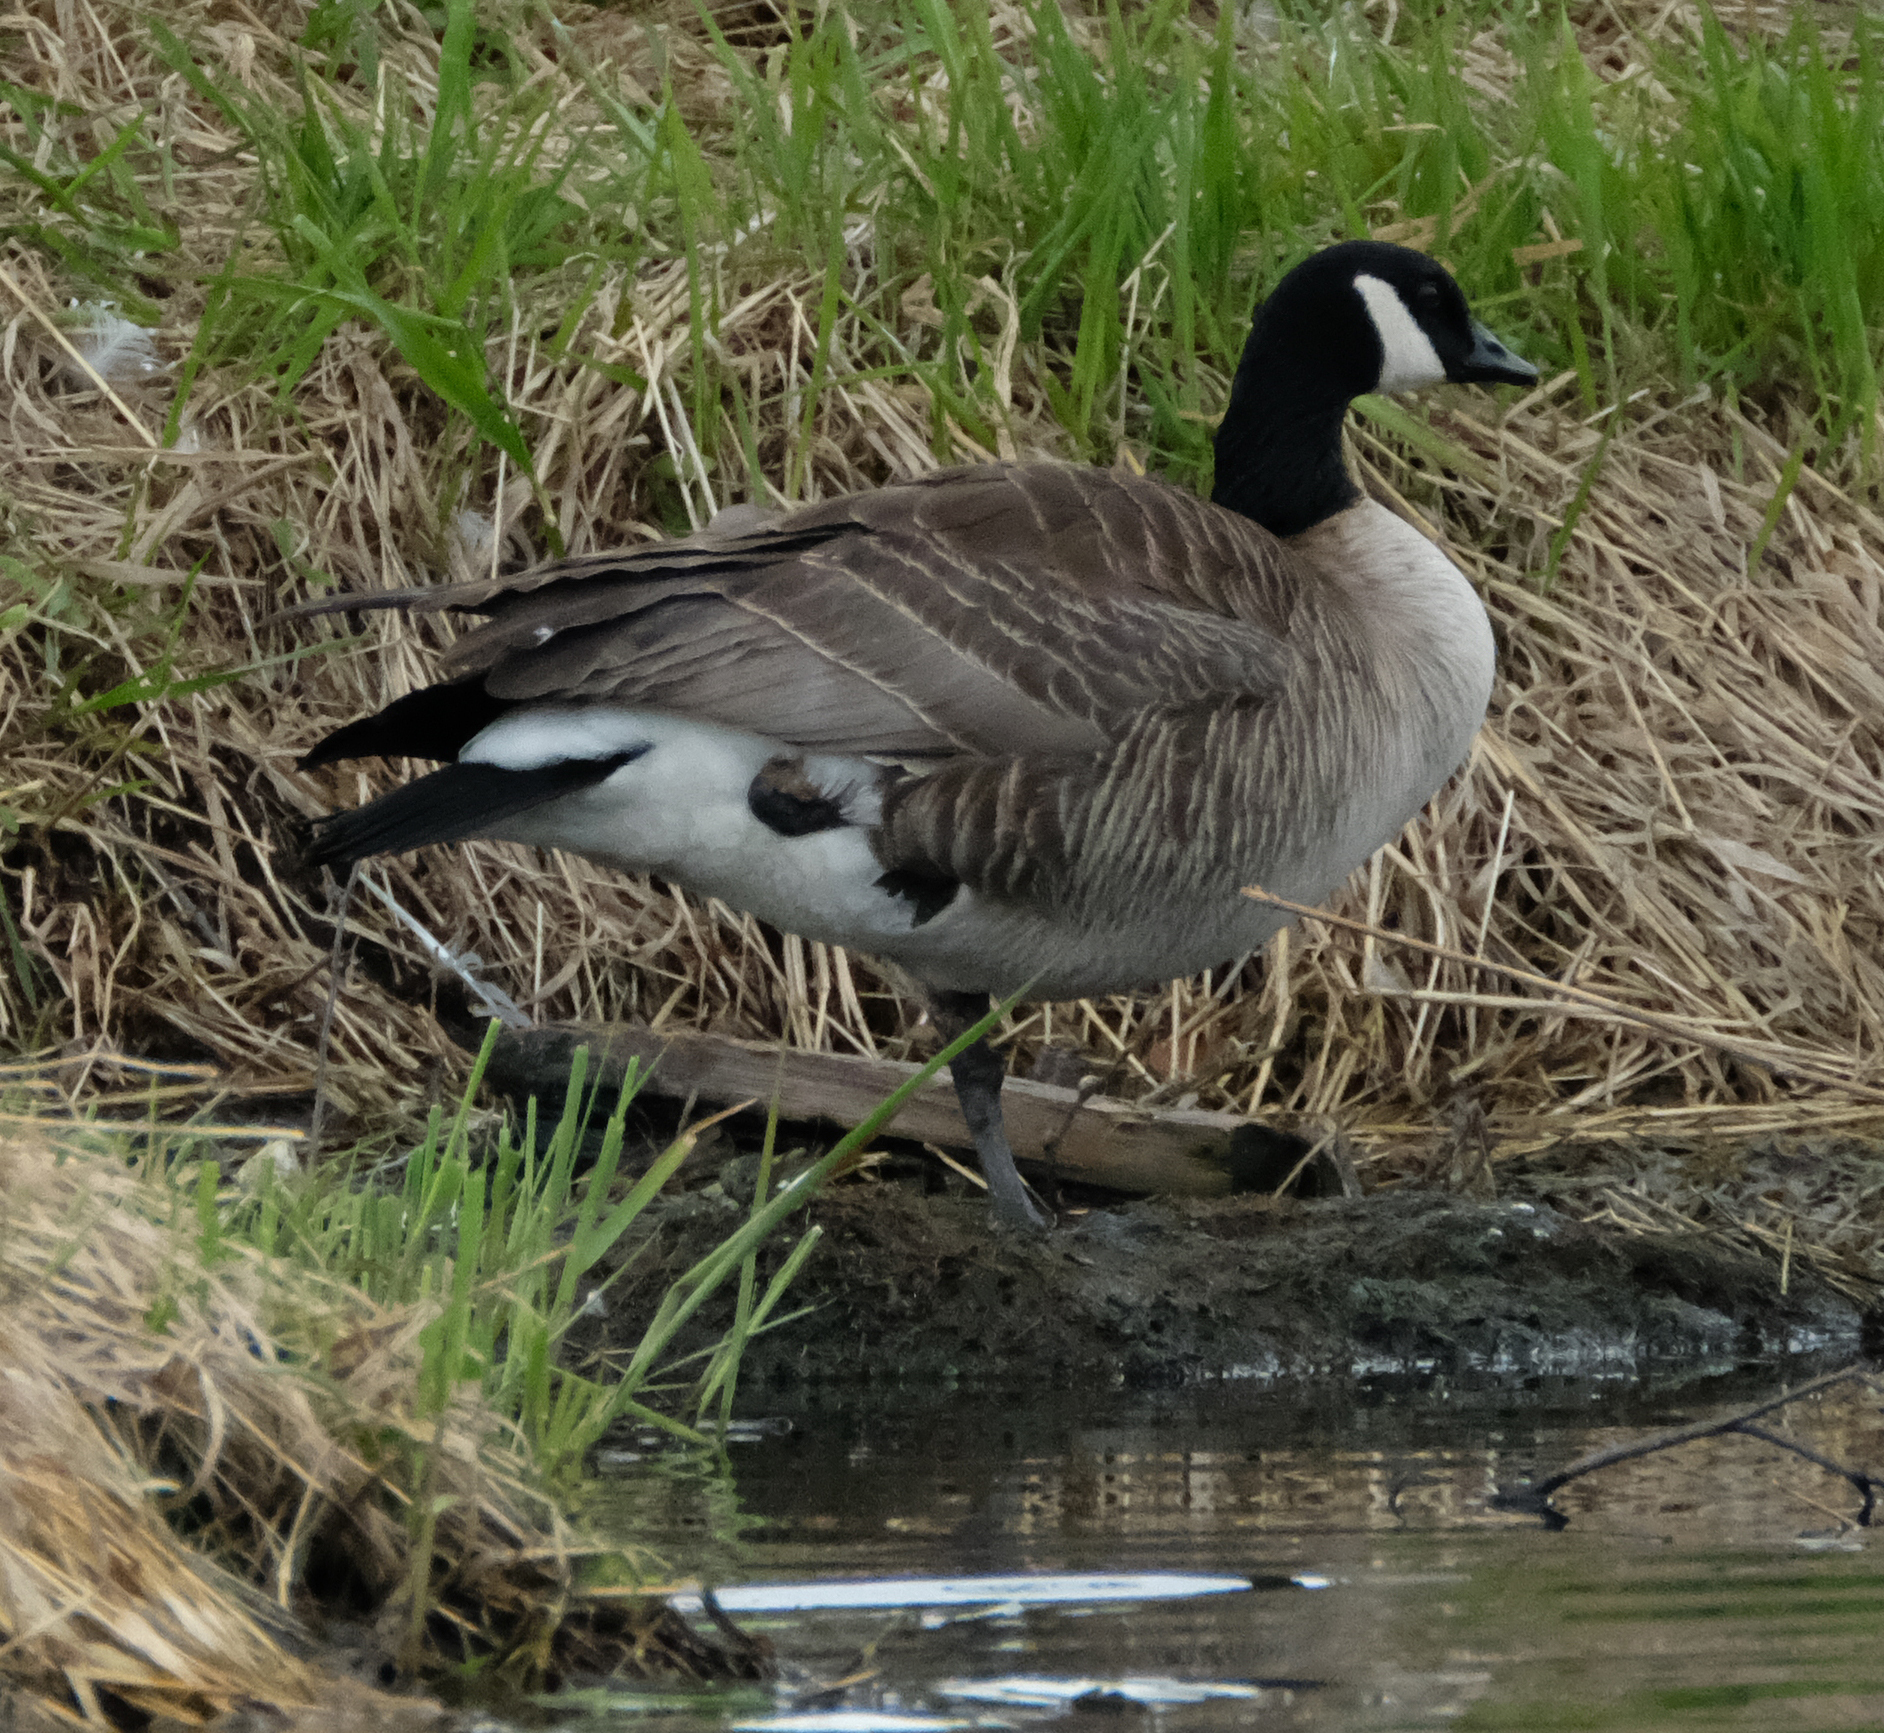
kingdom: Animalia
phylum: Chordata
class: Aves
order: Anseriformes
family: Anatidae
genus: Branta
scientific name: Branta canadensis
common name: Canada goose
